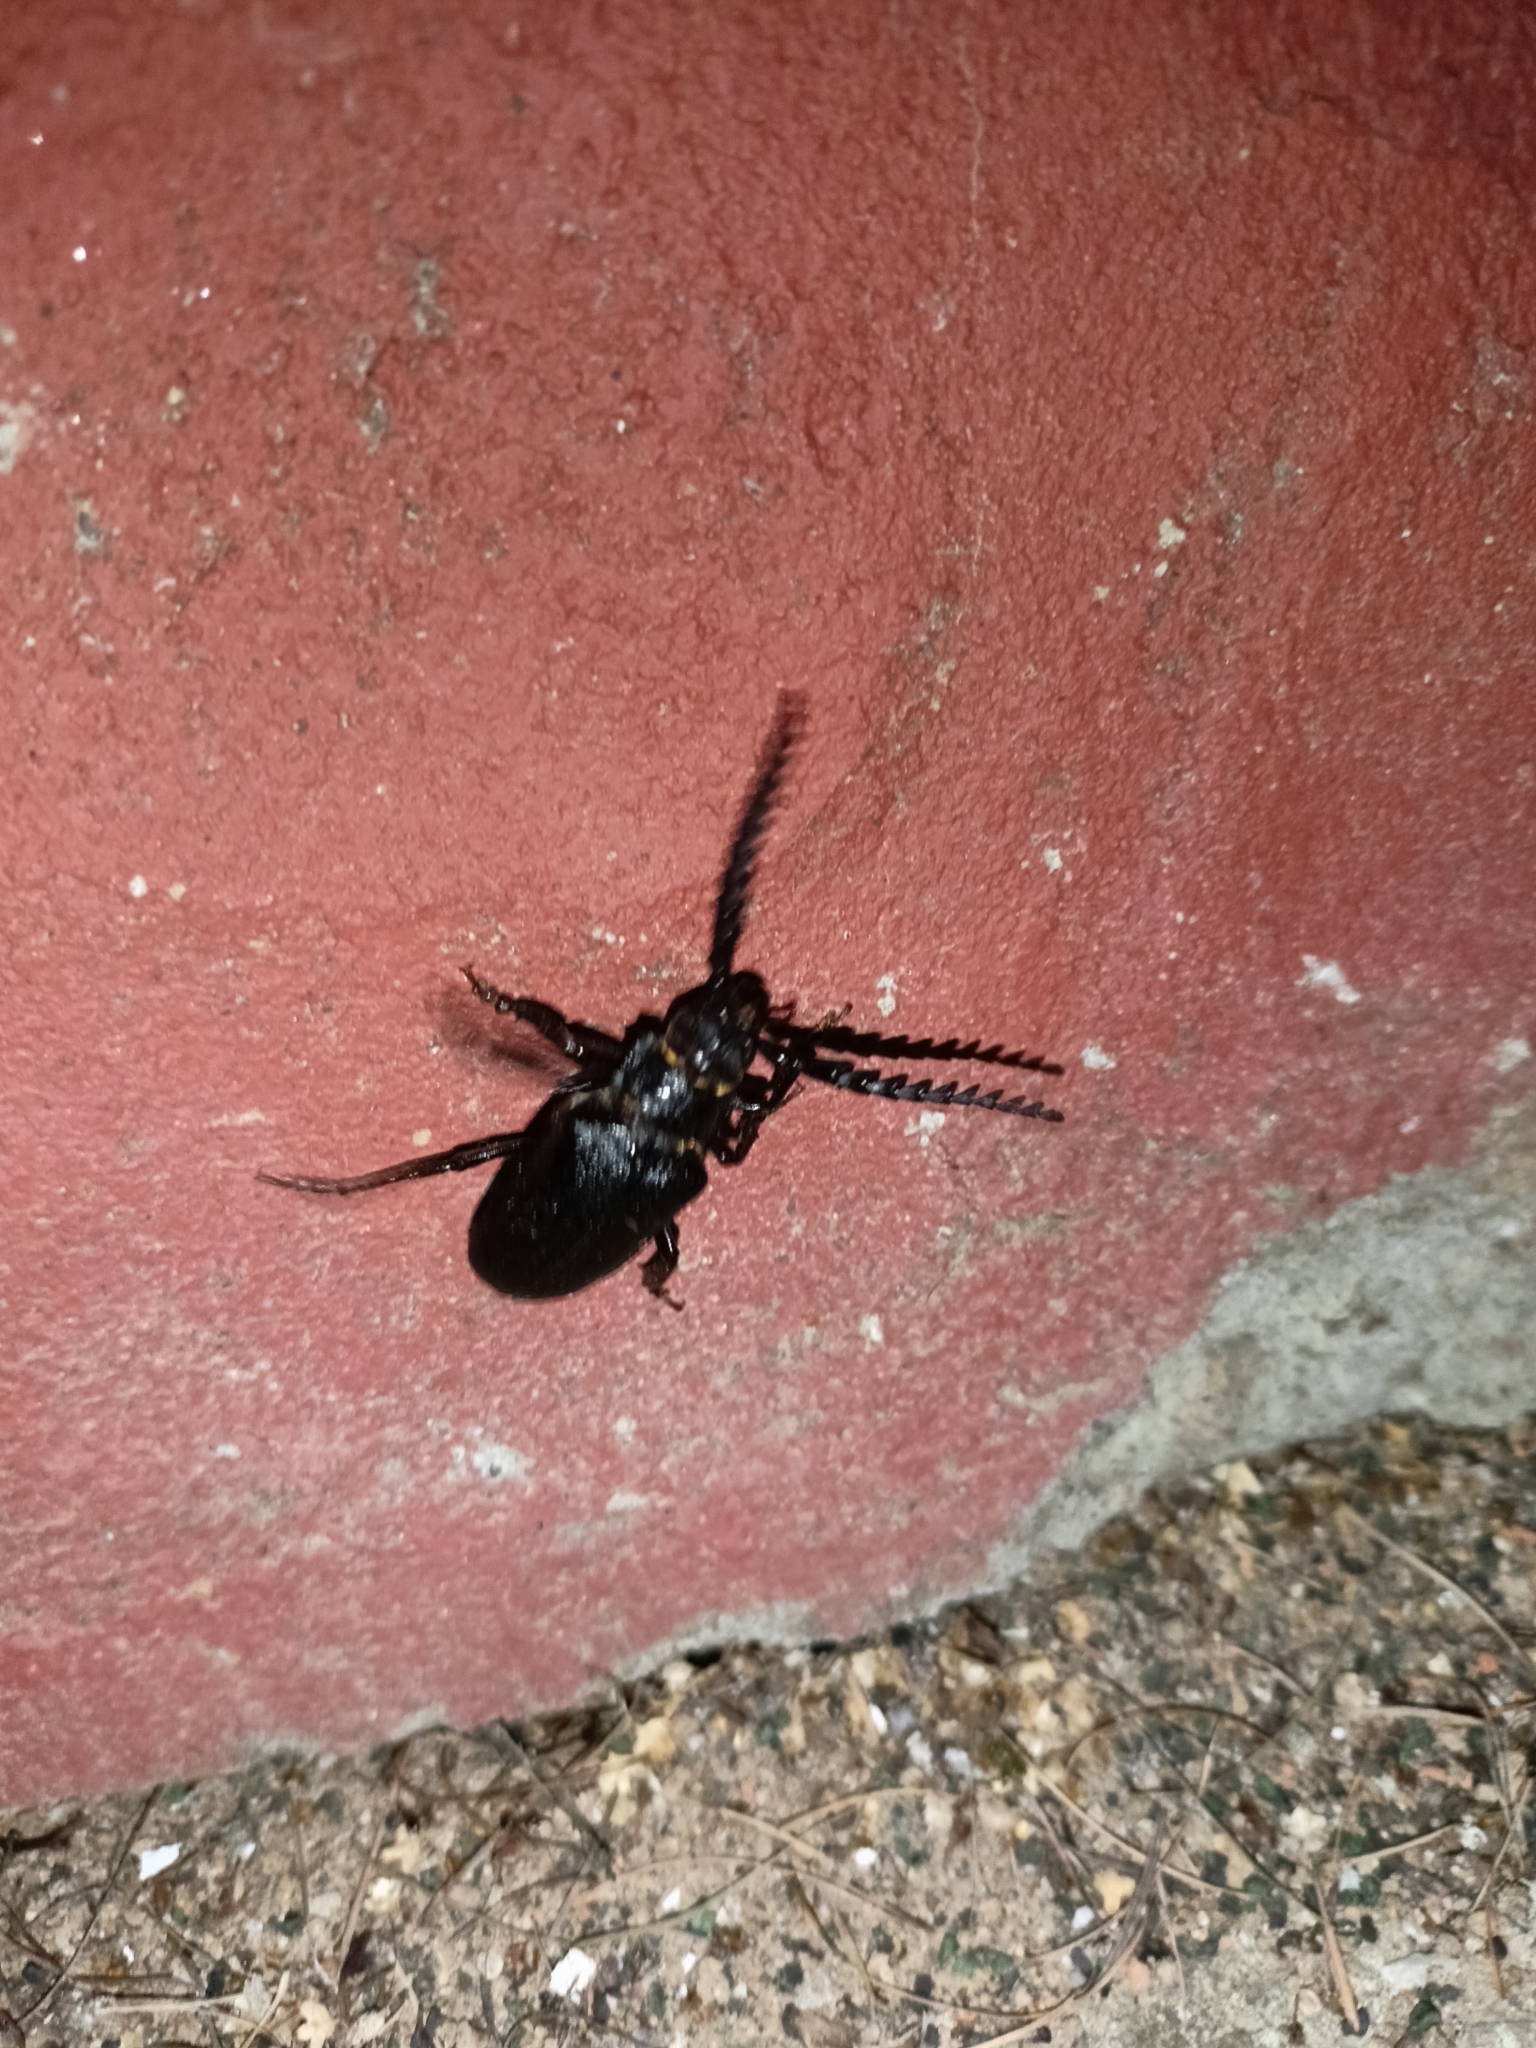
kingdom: Animalia
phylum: Arthropoda
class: Insecta
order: Coleoptera
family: Cerambycidae
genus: Prionus
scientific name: Prionus coriarius
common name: Tanner beetle
